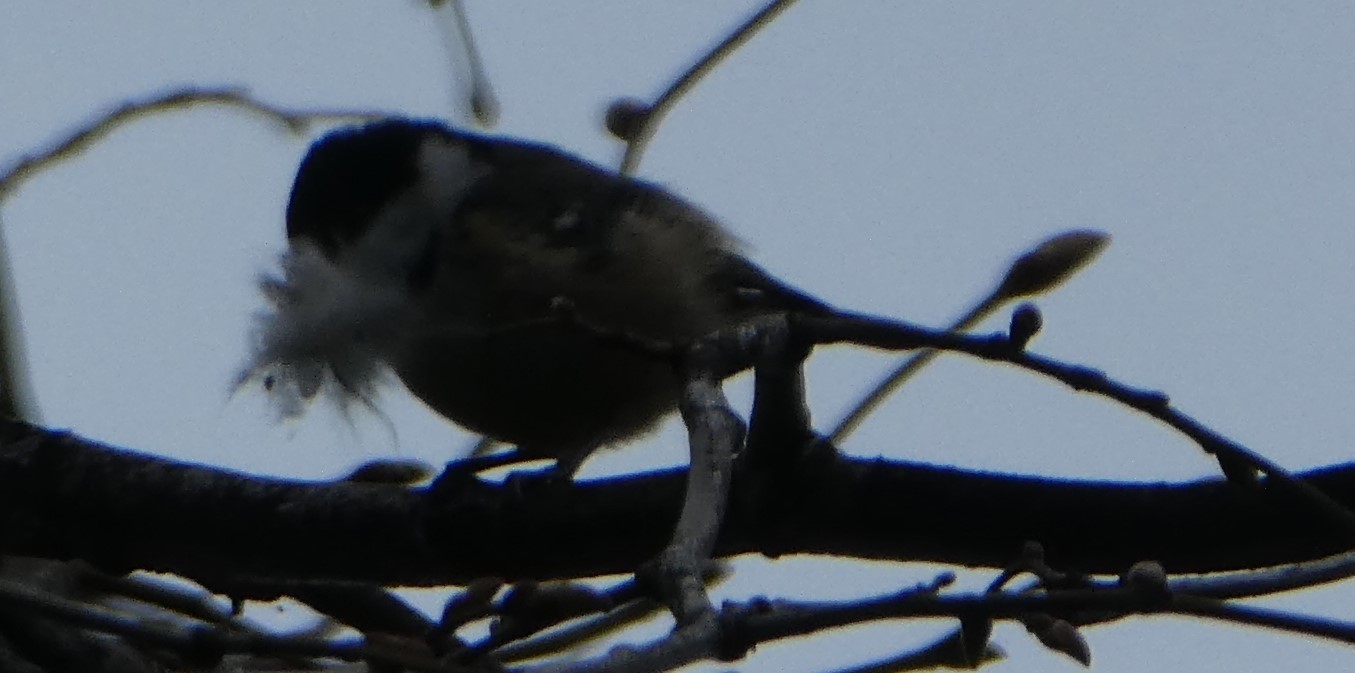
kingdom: Animalia
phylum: Chordata
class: Aves
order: Passeriformes
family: Paridae
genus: Periparus
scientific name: Periparus ater
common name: Coal tit
